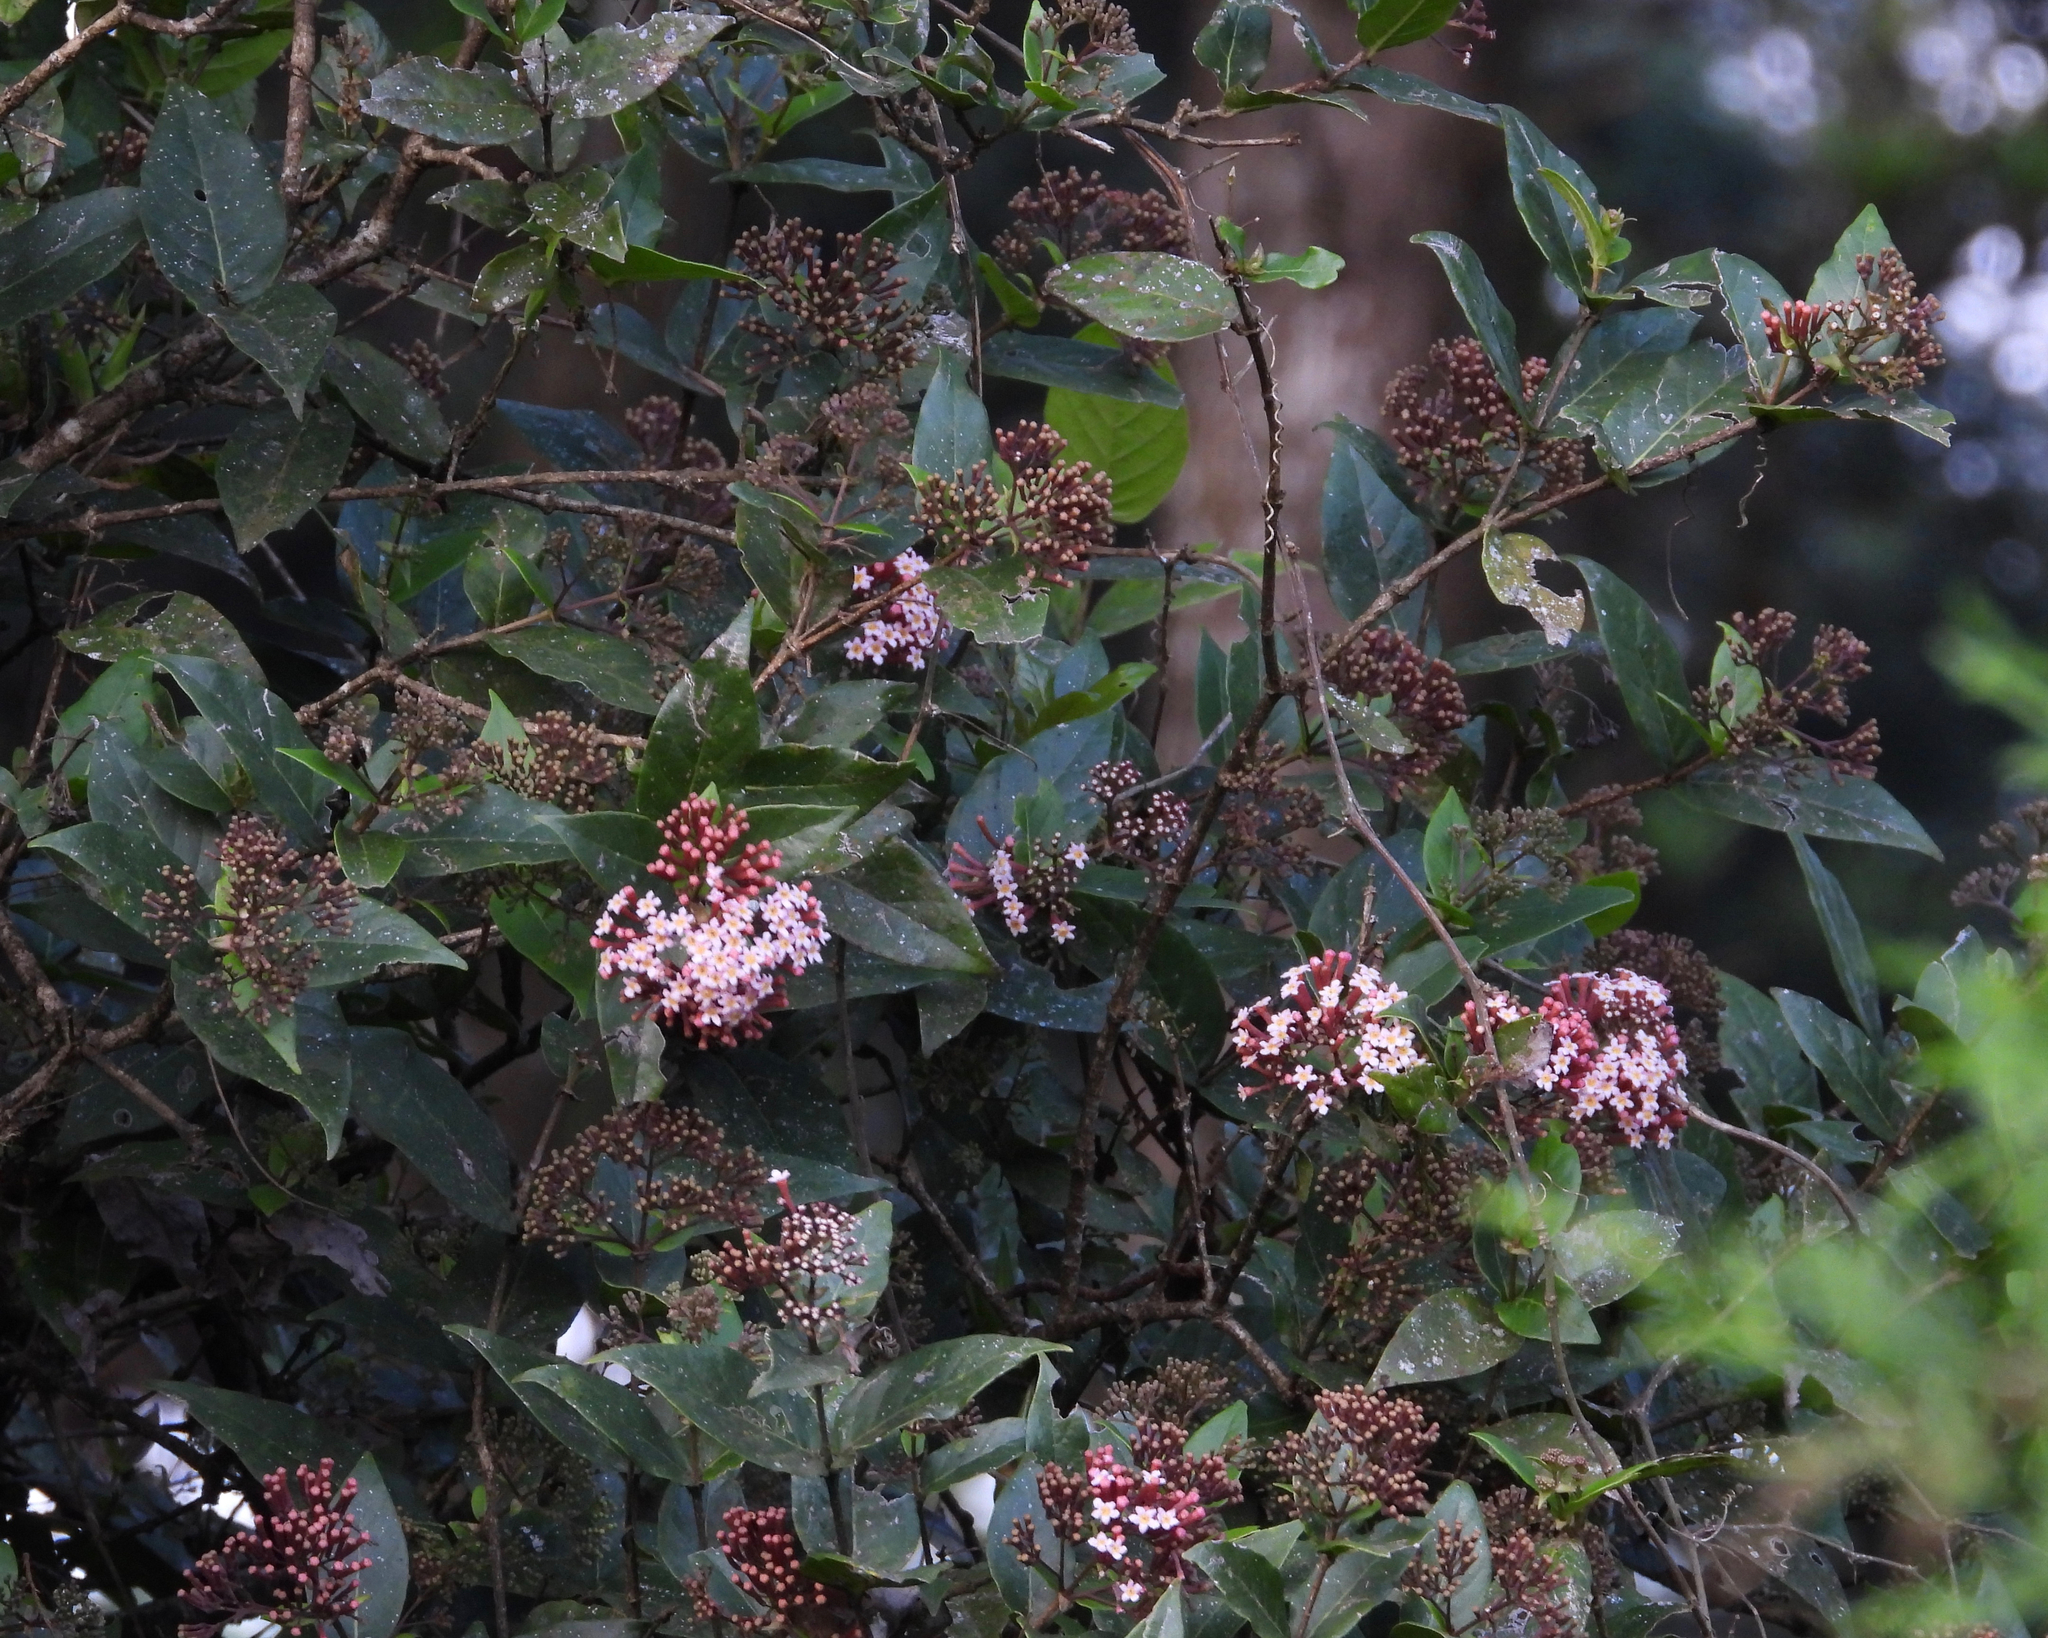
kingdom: Plantae
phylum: Tracheophyta
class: Magnoliopsida
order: Gentianales
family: Rubiaceae
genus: Rogiera
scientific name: Rogiera cordata
